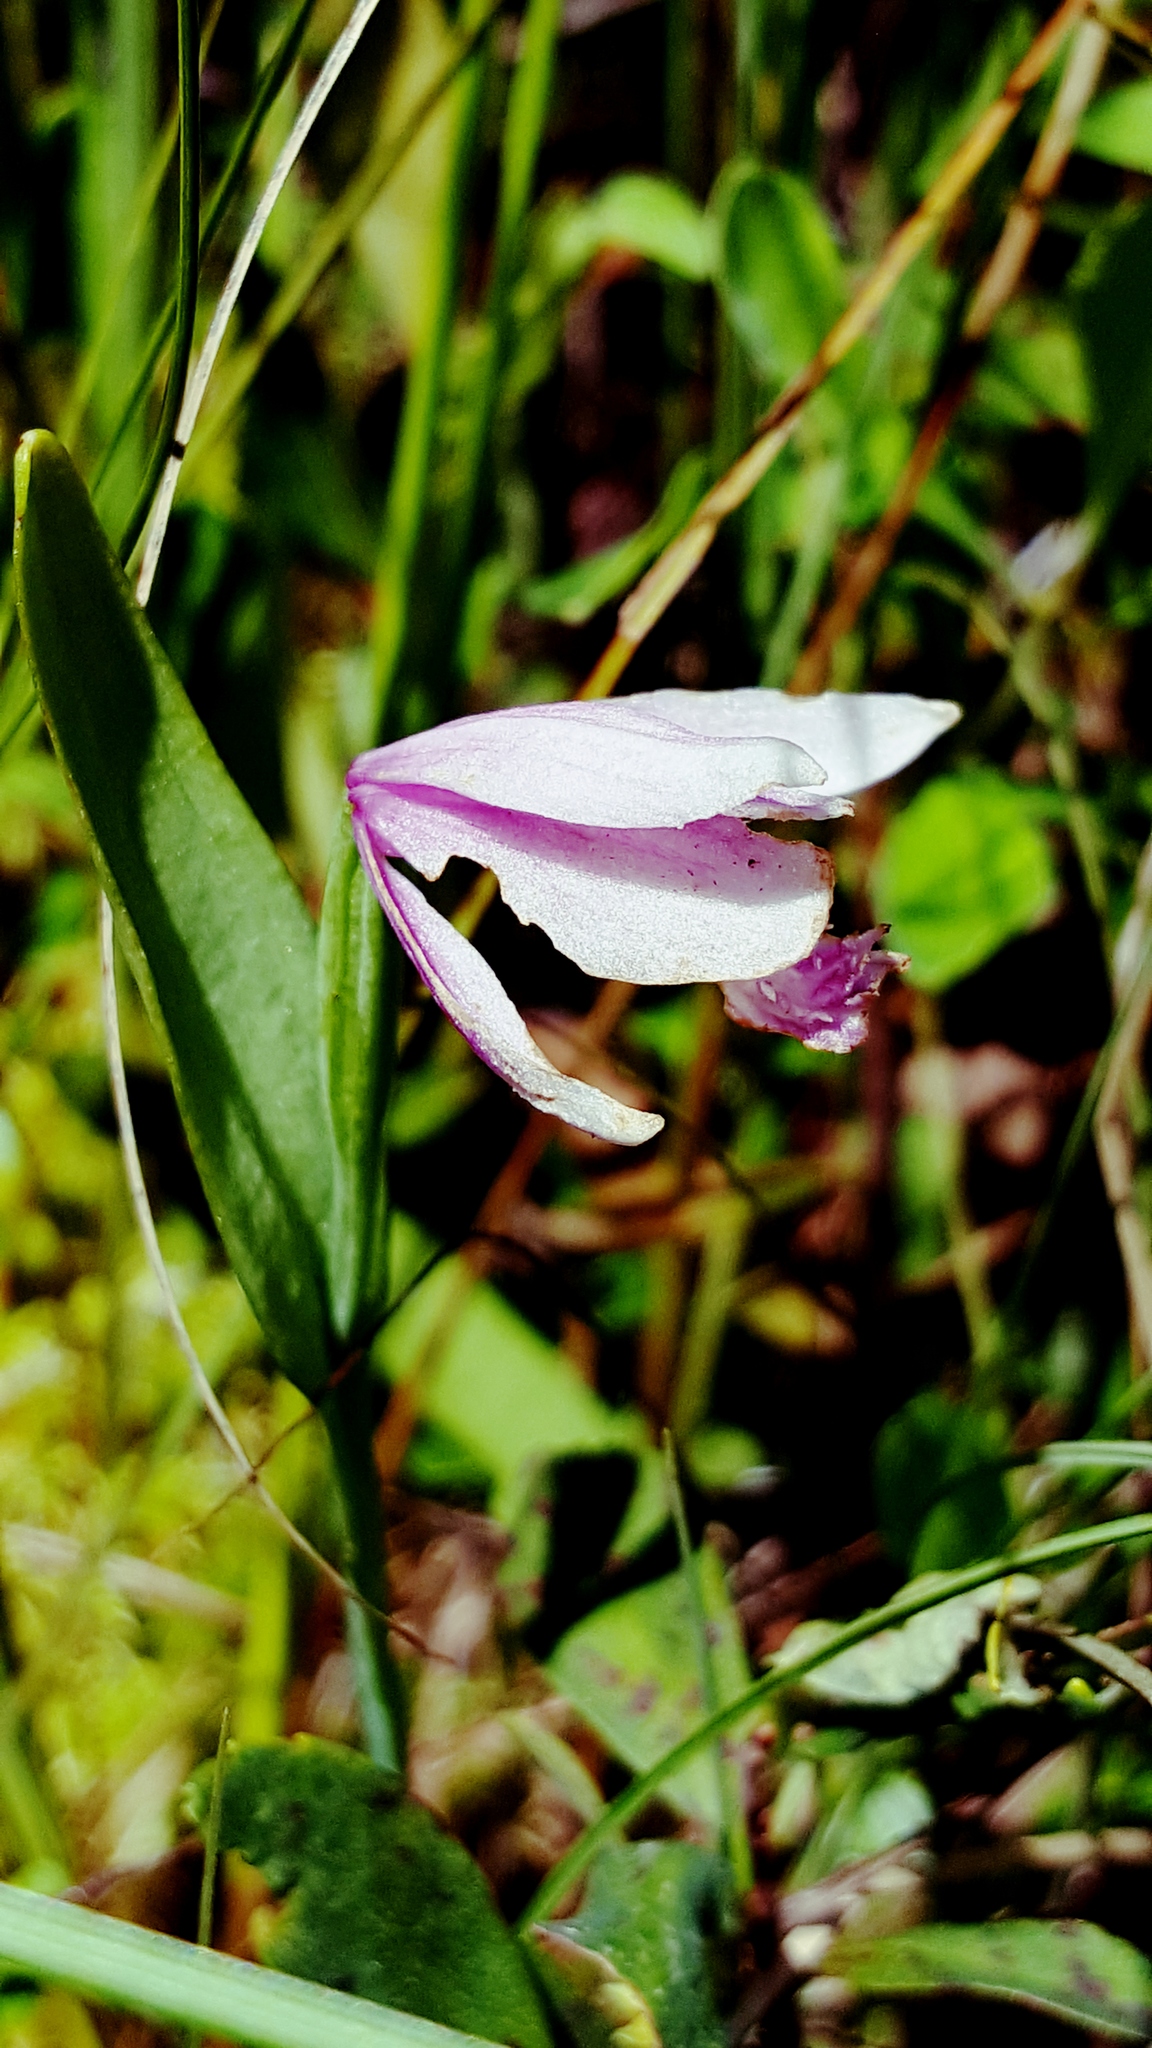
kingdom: Plantae
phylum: Tracheophyta
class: Liliopsida
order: Asparagales
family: Orchidaceae
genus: Pogonia
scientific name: Pogonia ophioglossoides
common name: Rose pogonia
